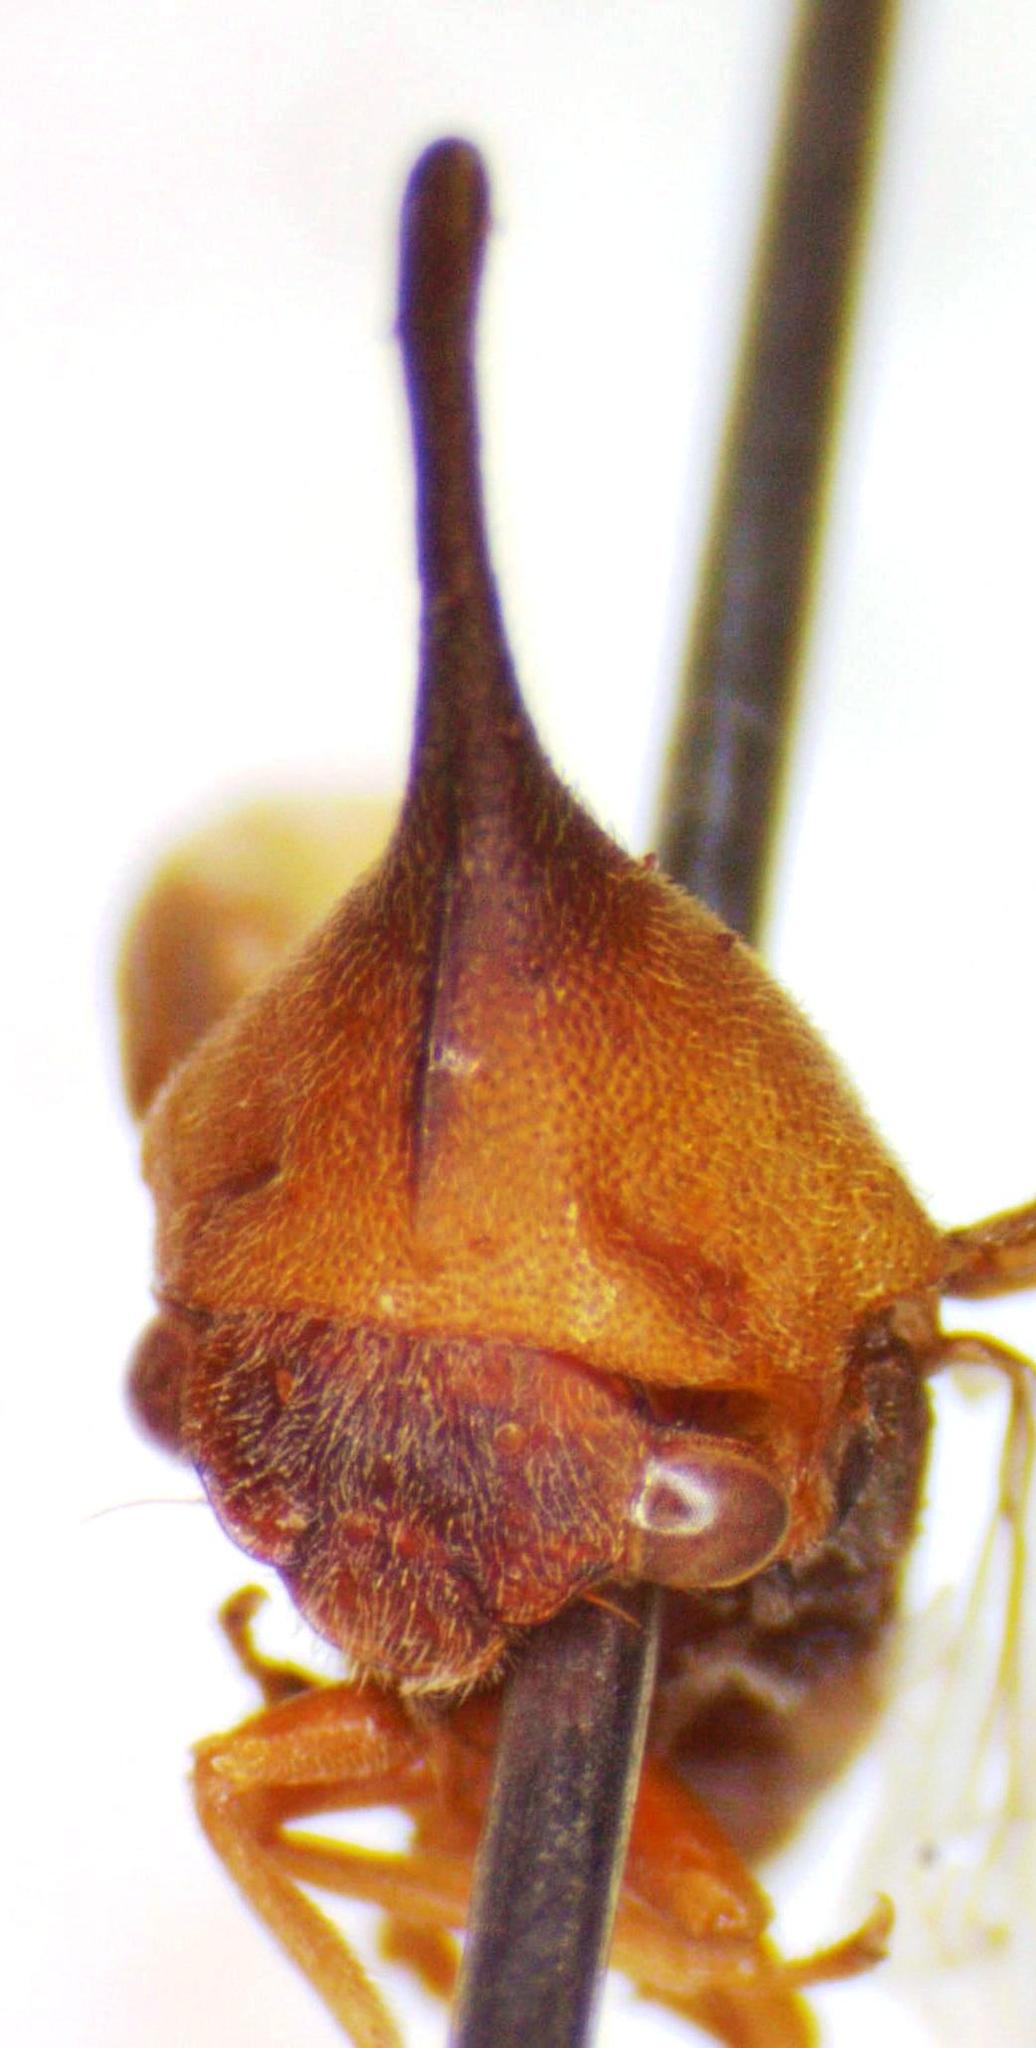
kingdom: Animalia
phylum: Arthropoda
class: Insecta
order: Hemiptera
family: Membracidae
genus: Guayaquila
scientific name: Guayaquila gracilicornis
